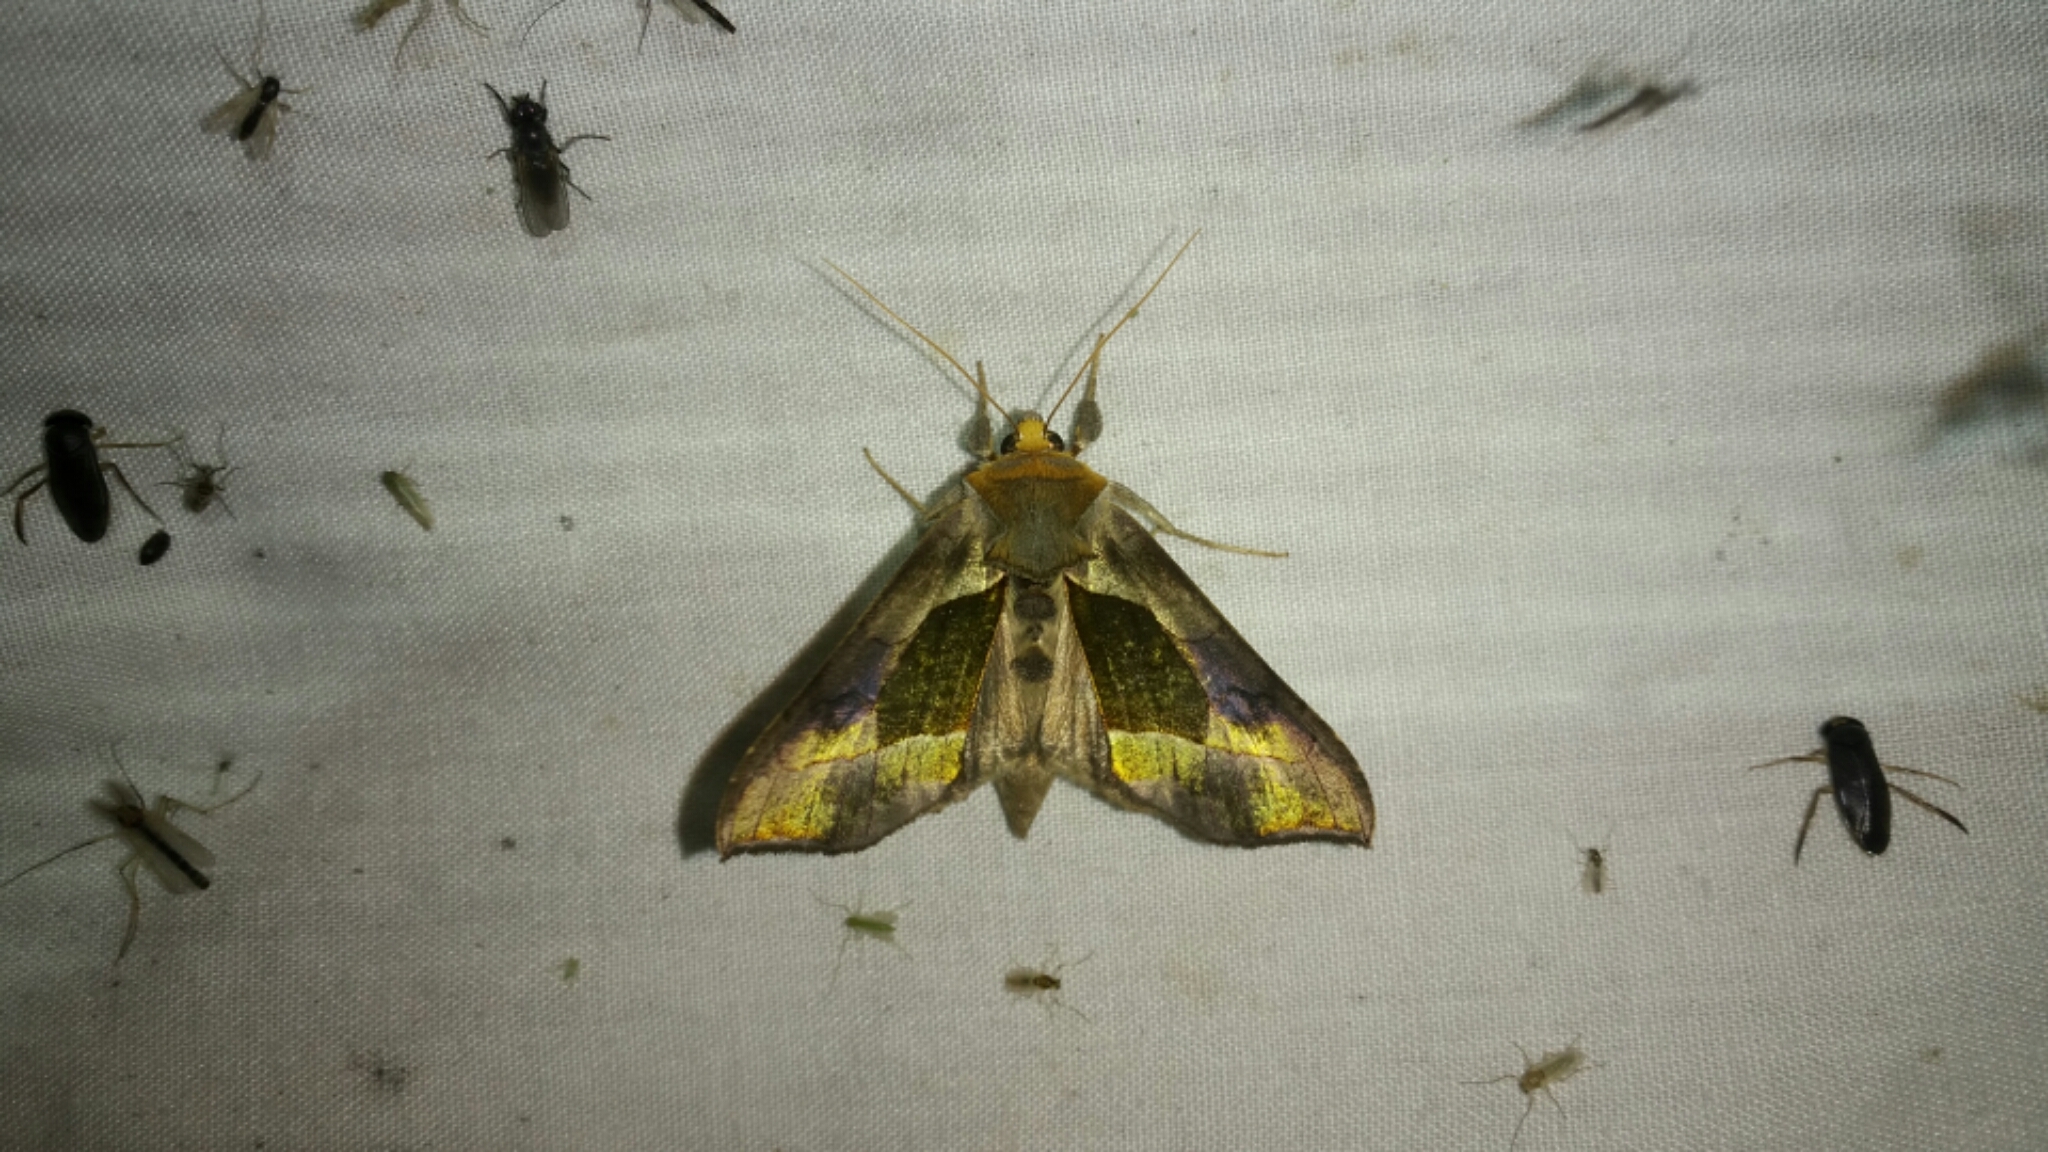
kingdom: Animalia
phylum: Arthropoda
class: Insecta
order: Lepidoptera
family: Noctuidae
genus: Diachrysia
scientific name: Diachrysia balluca
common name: Green-patched looper moth
